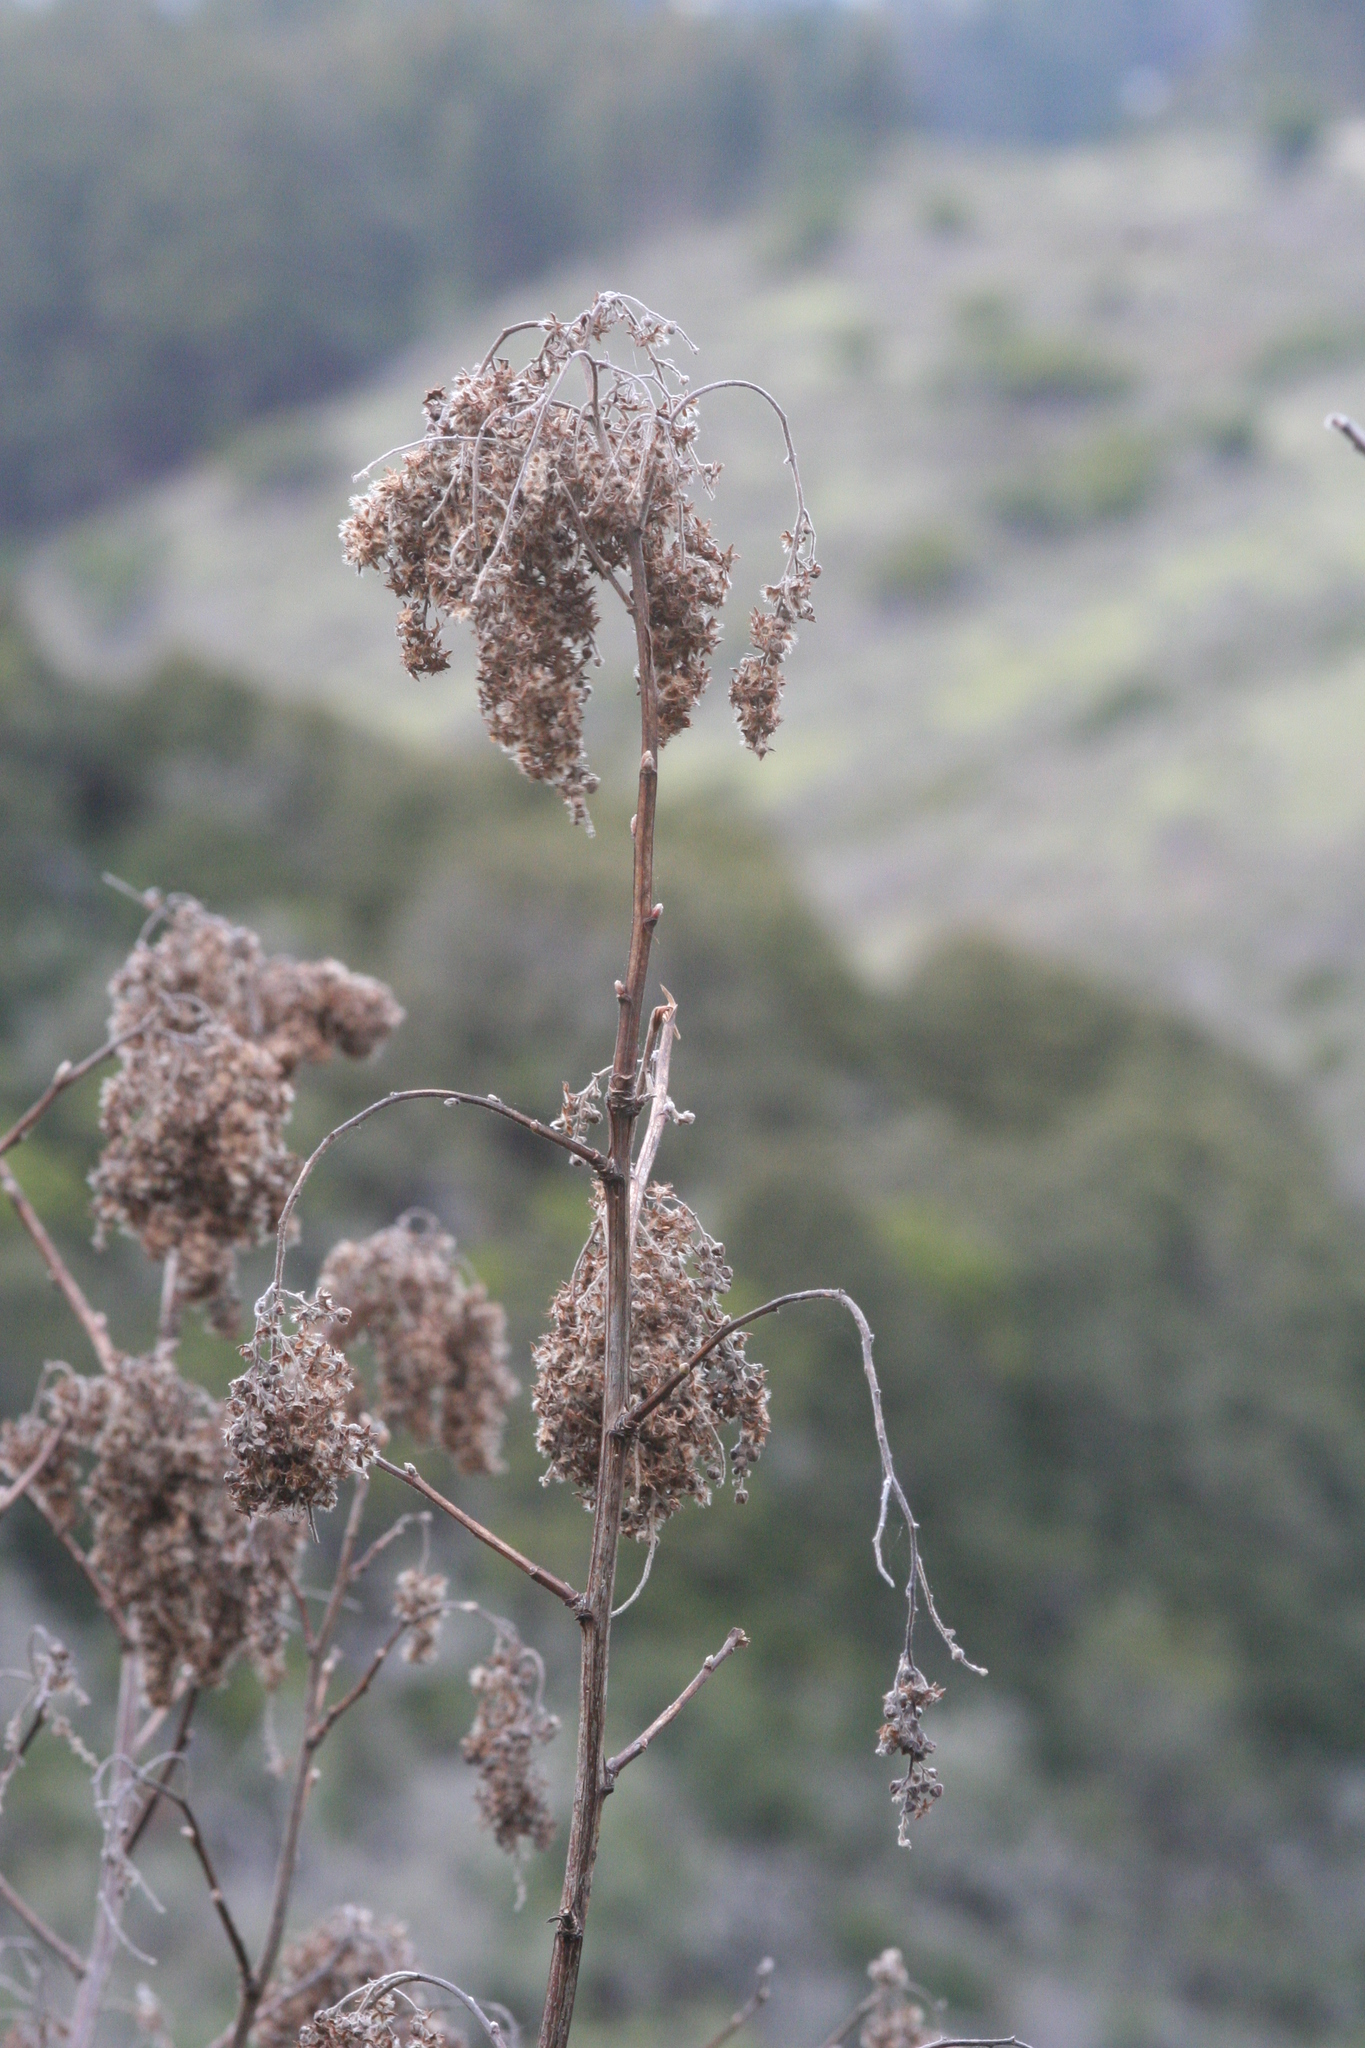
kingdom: Plantae
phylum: Tracheophyta
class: Magnoliopsida
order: Rosales
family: Rosaceae
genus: Holodiscus
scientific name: Holodiscus discolor
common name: Oceanspray
